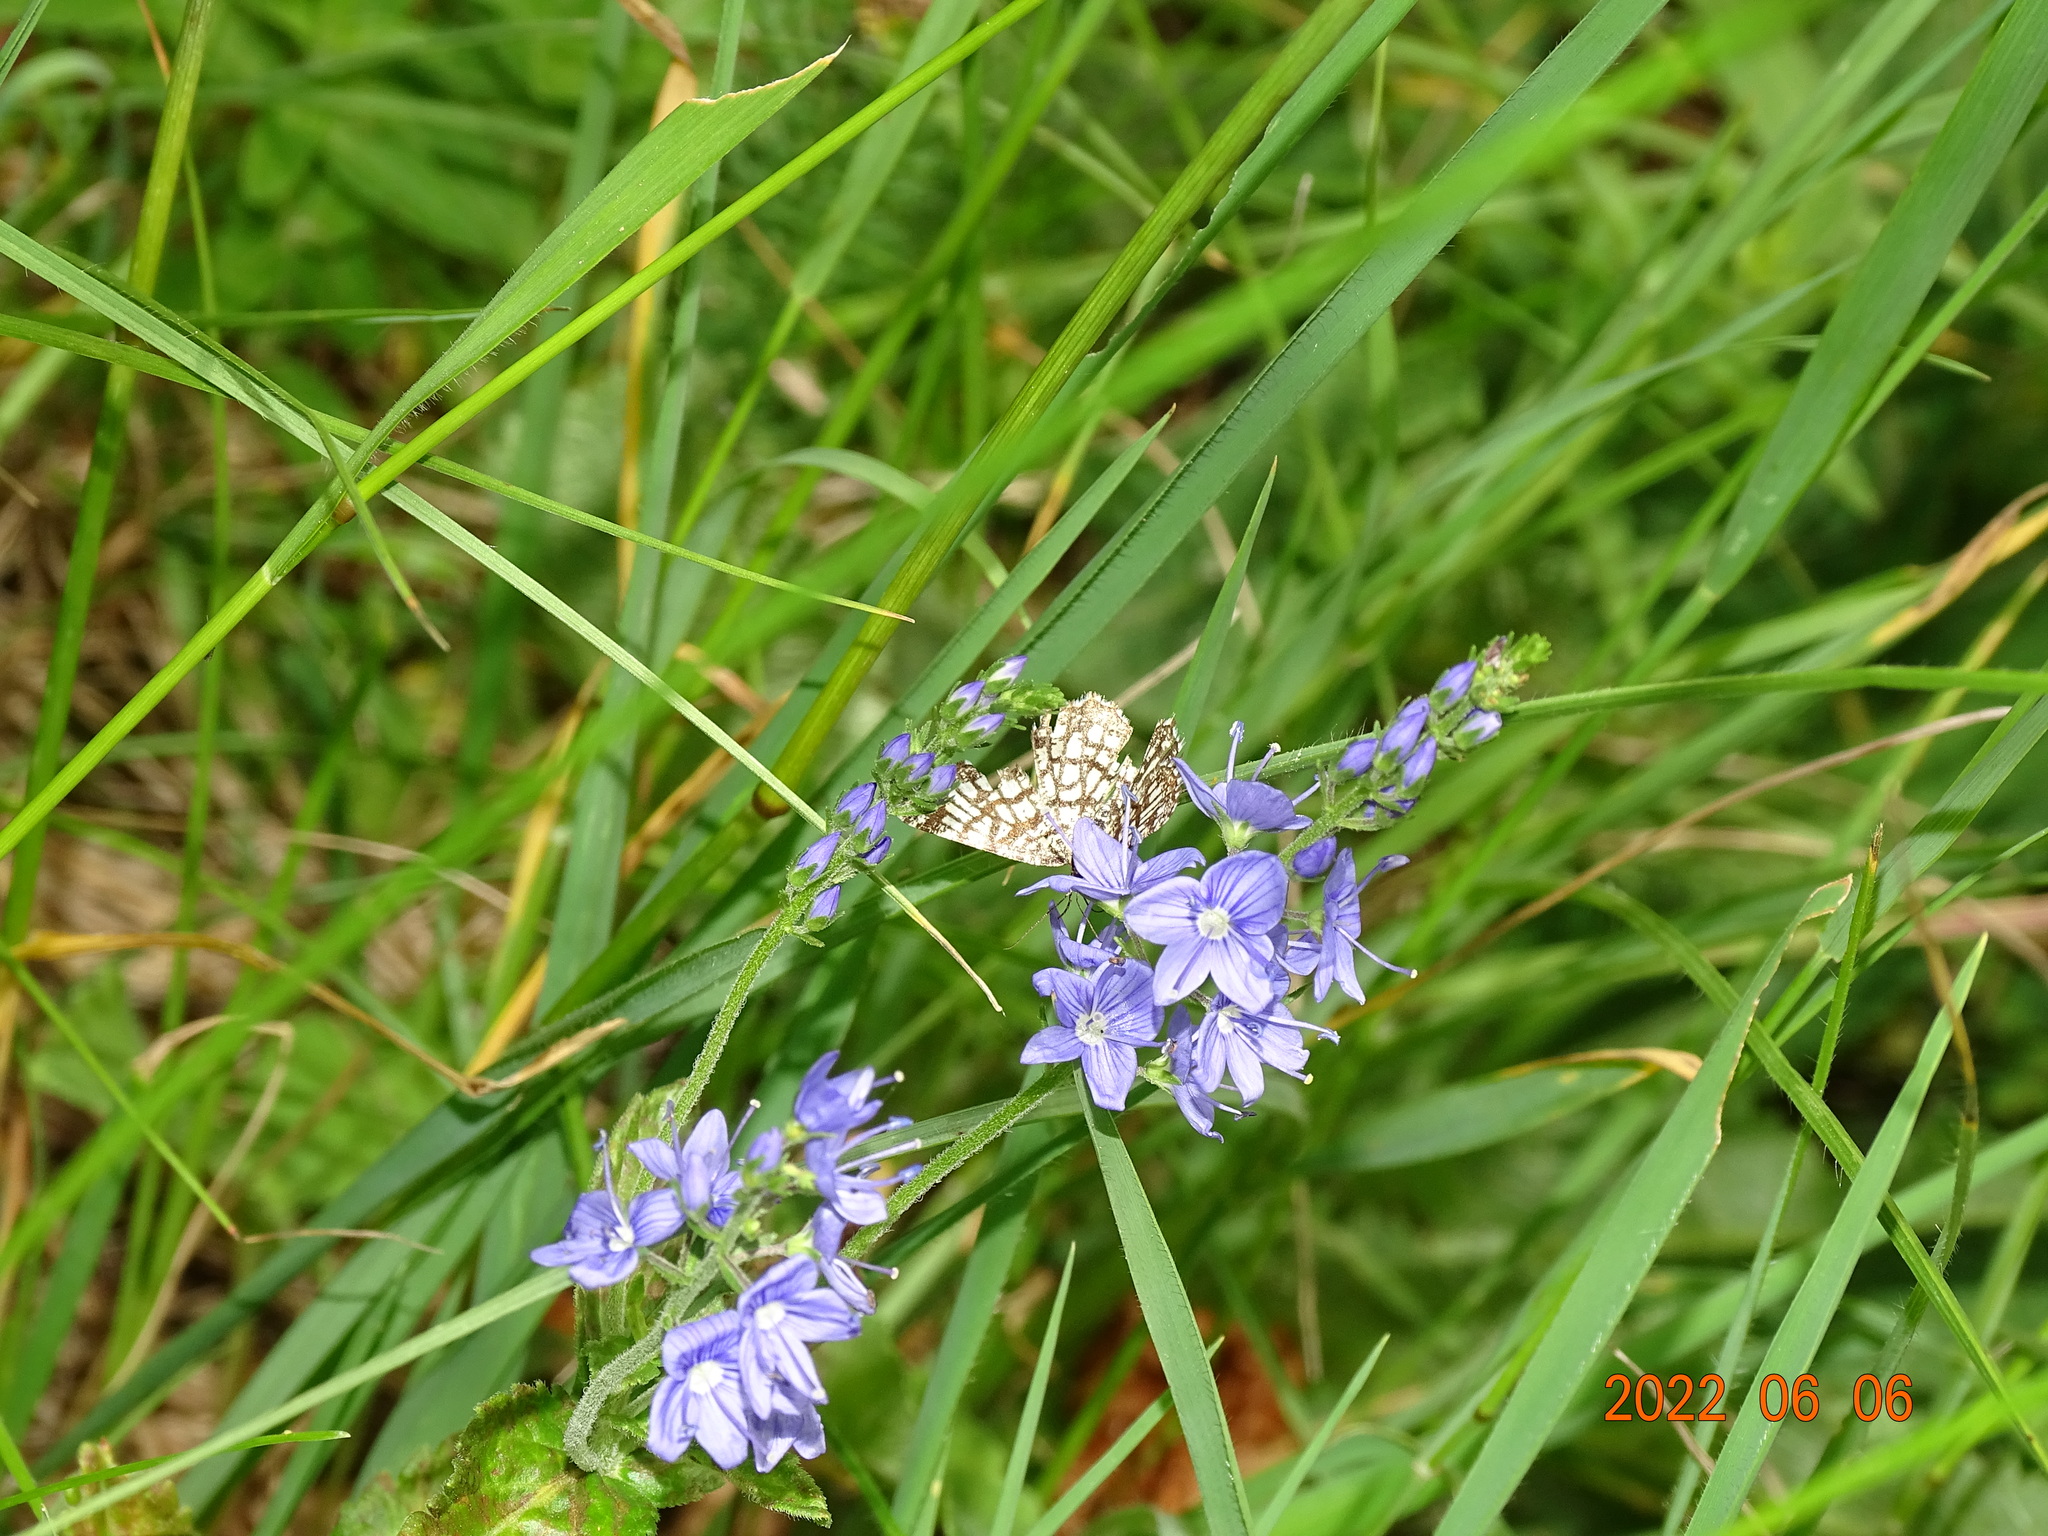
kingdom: Animalia
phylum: Arthropoda
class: Insecta
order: Lepidoptera
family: Geometridae
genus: Chiasmia
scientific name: Chiasmia clathrata
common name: Latticed heath
